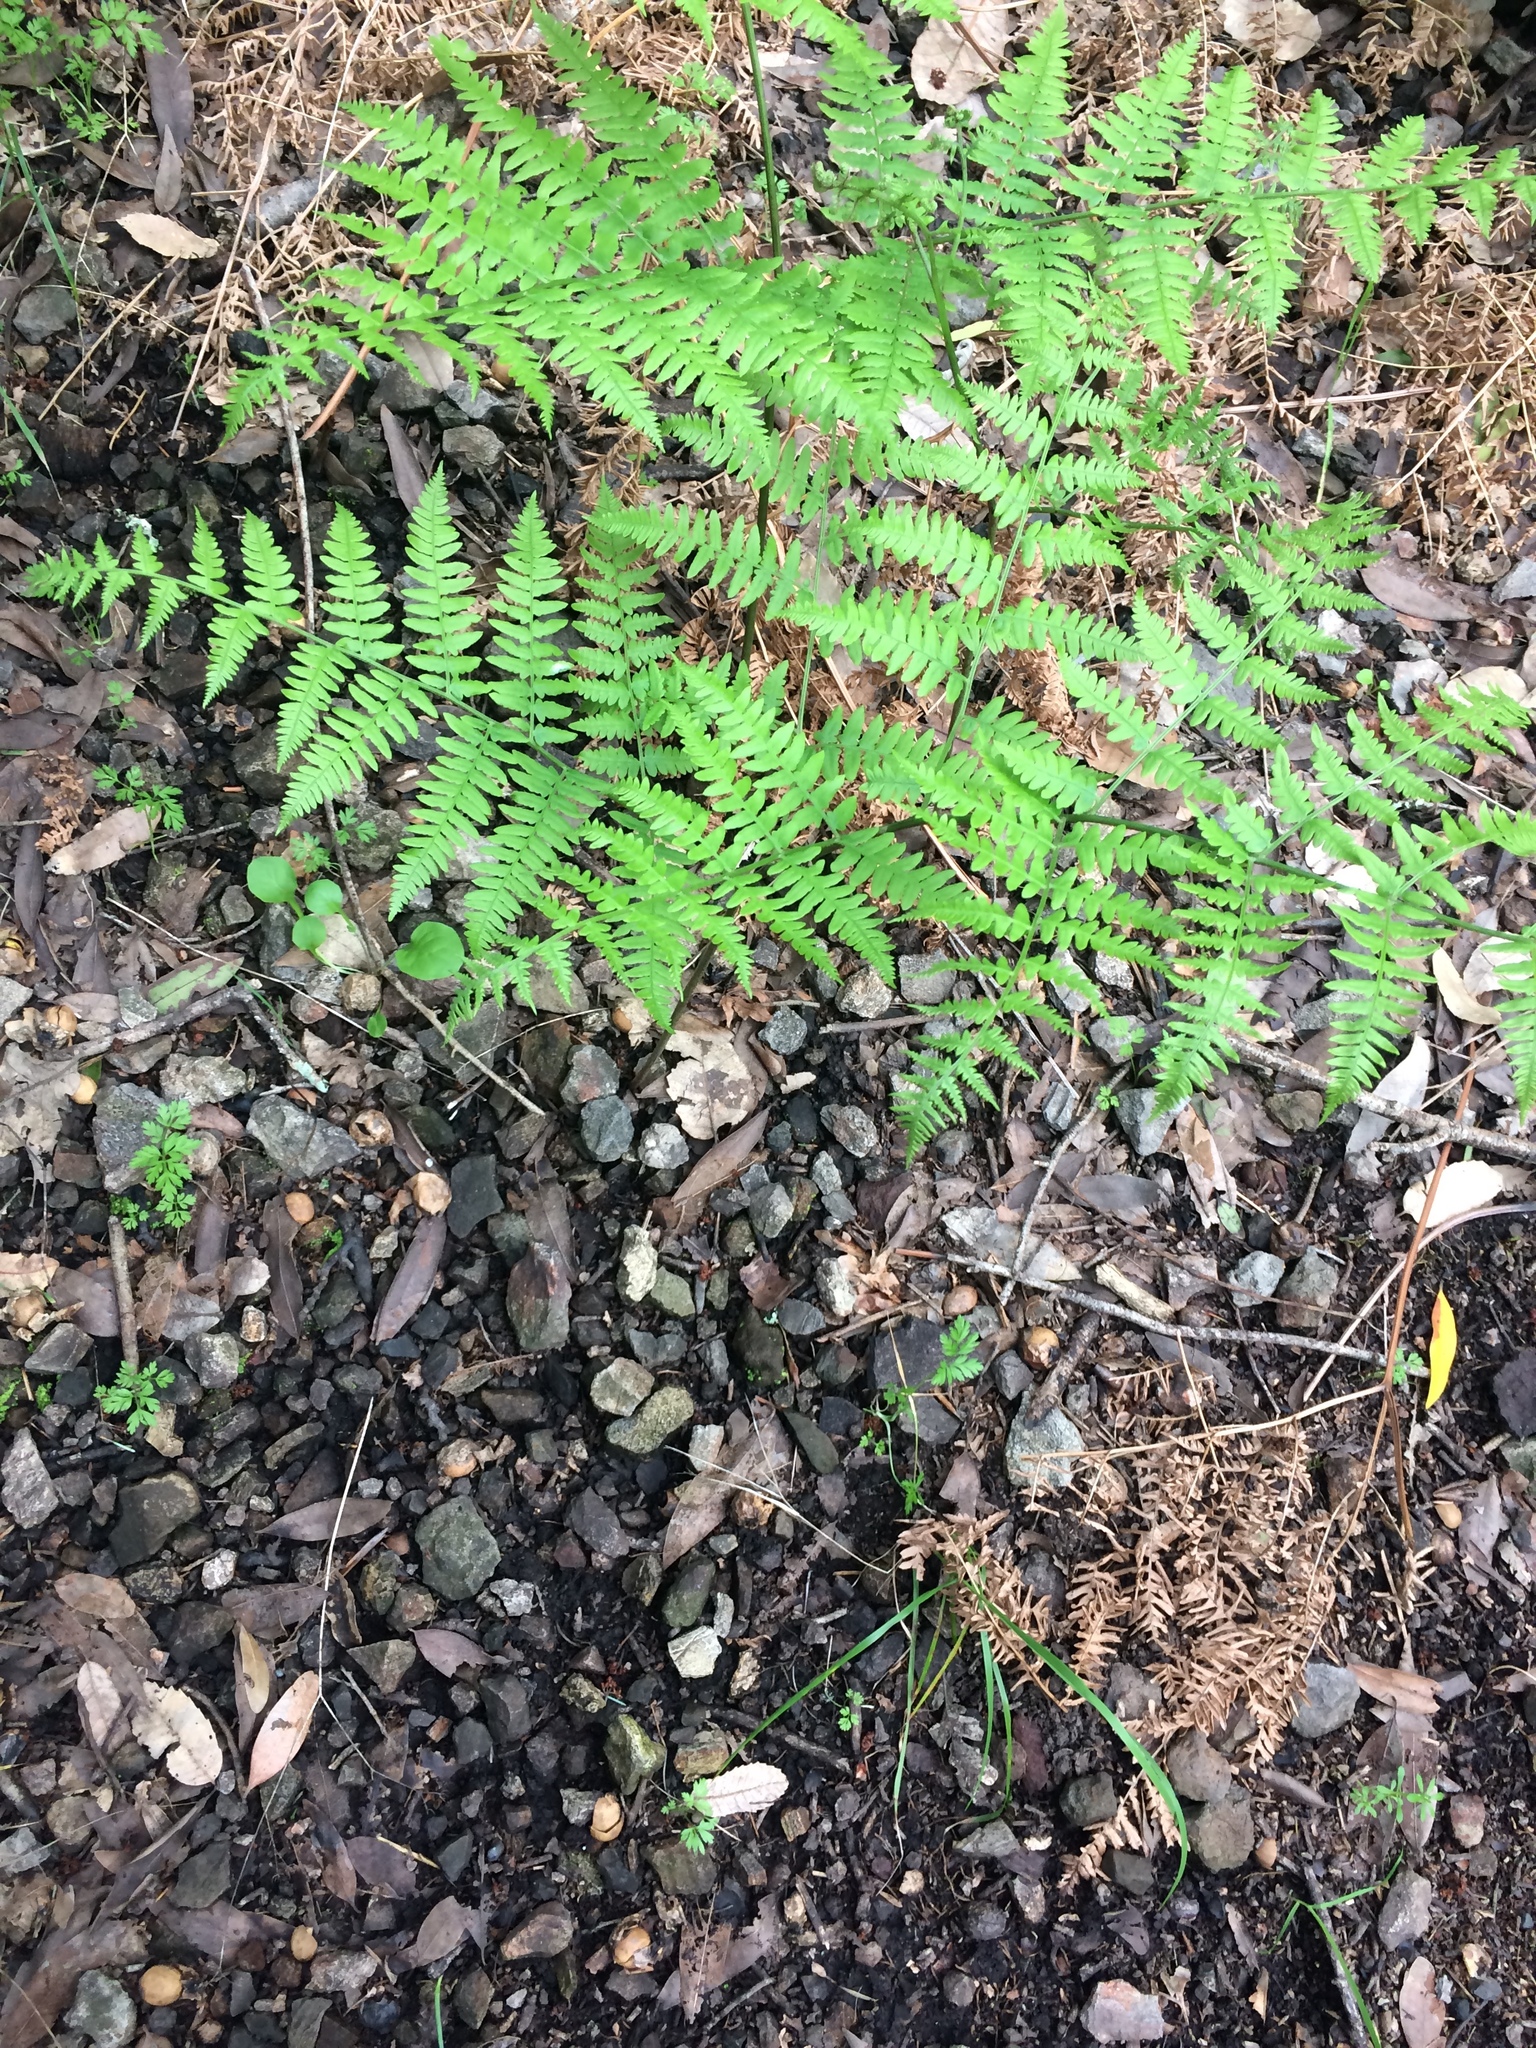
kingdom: Plantae
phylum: Tracheophyta
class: Polypodiopsida
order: Polypodiales
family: Dennstaedtiaceae
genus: Pteridium
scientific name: Pteridium aquilinum
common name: Bracken
